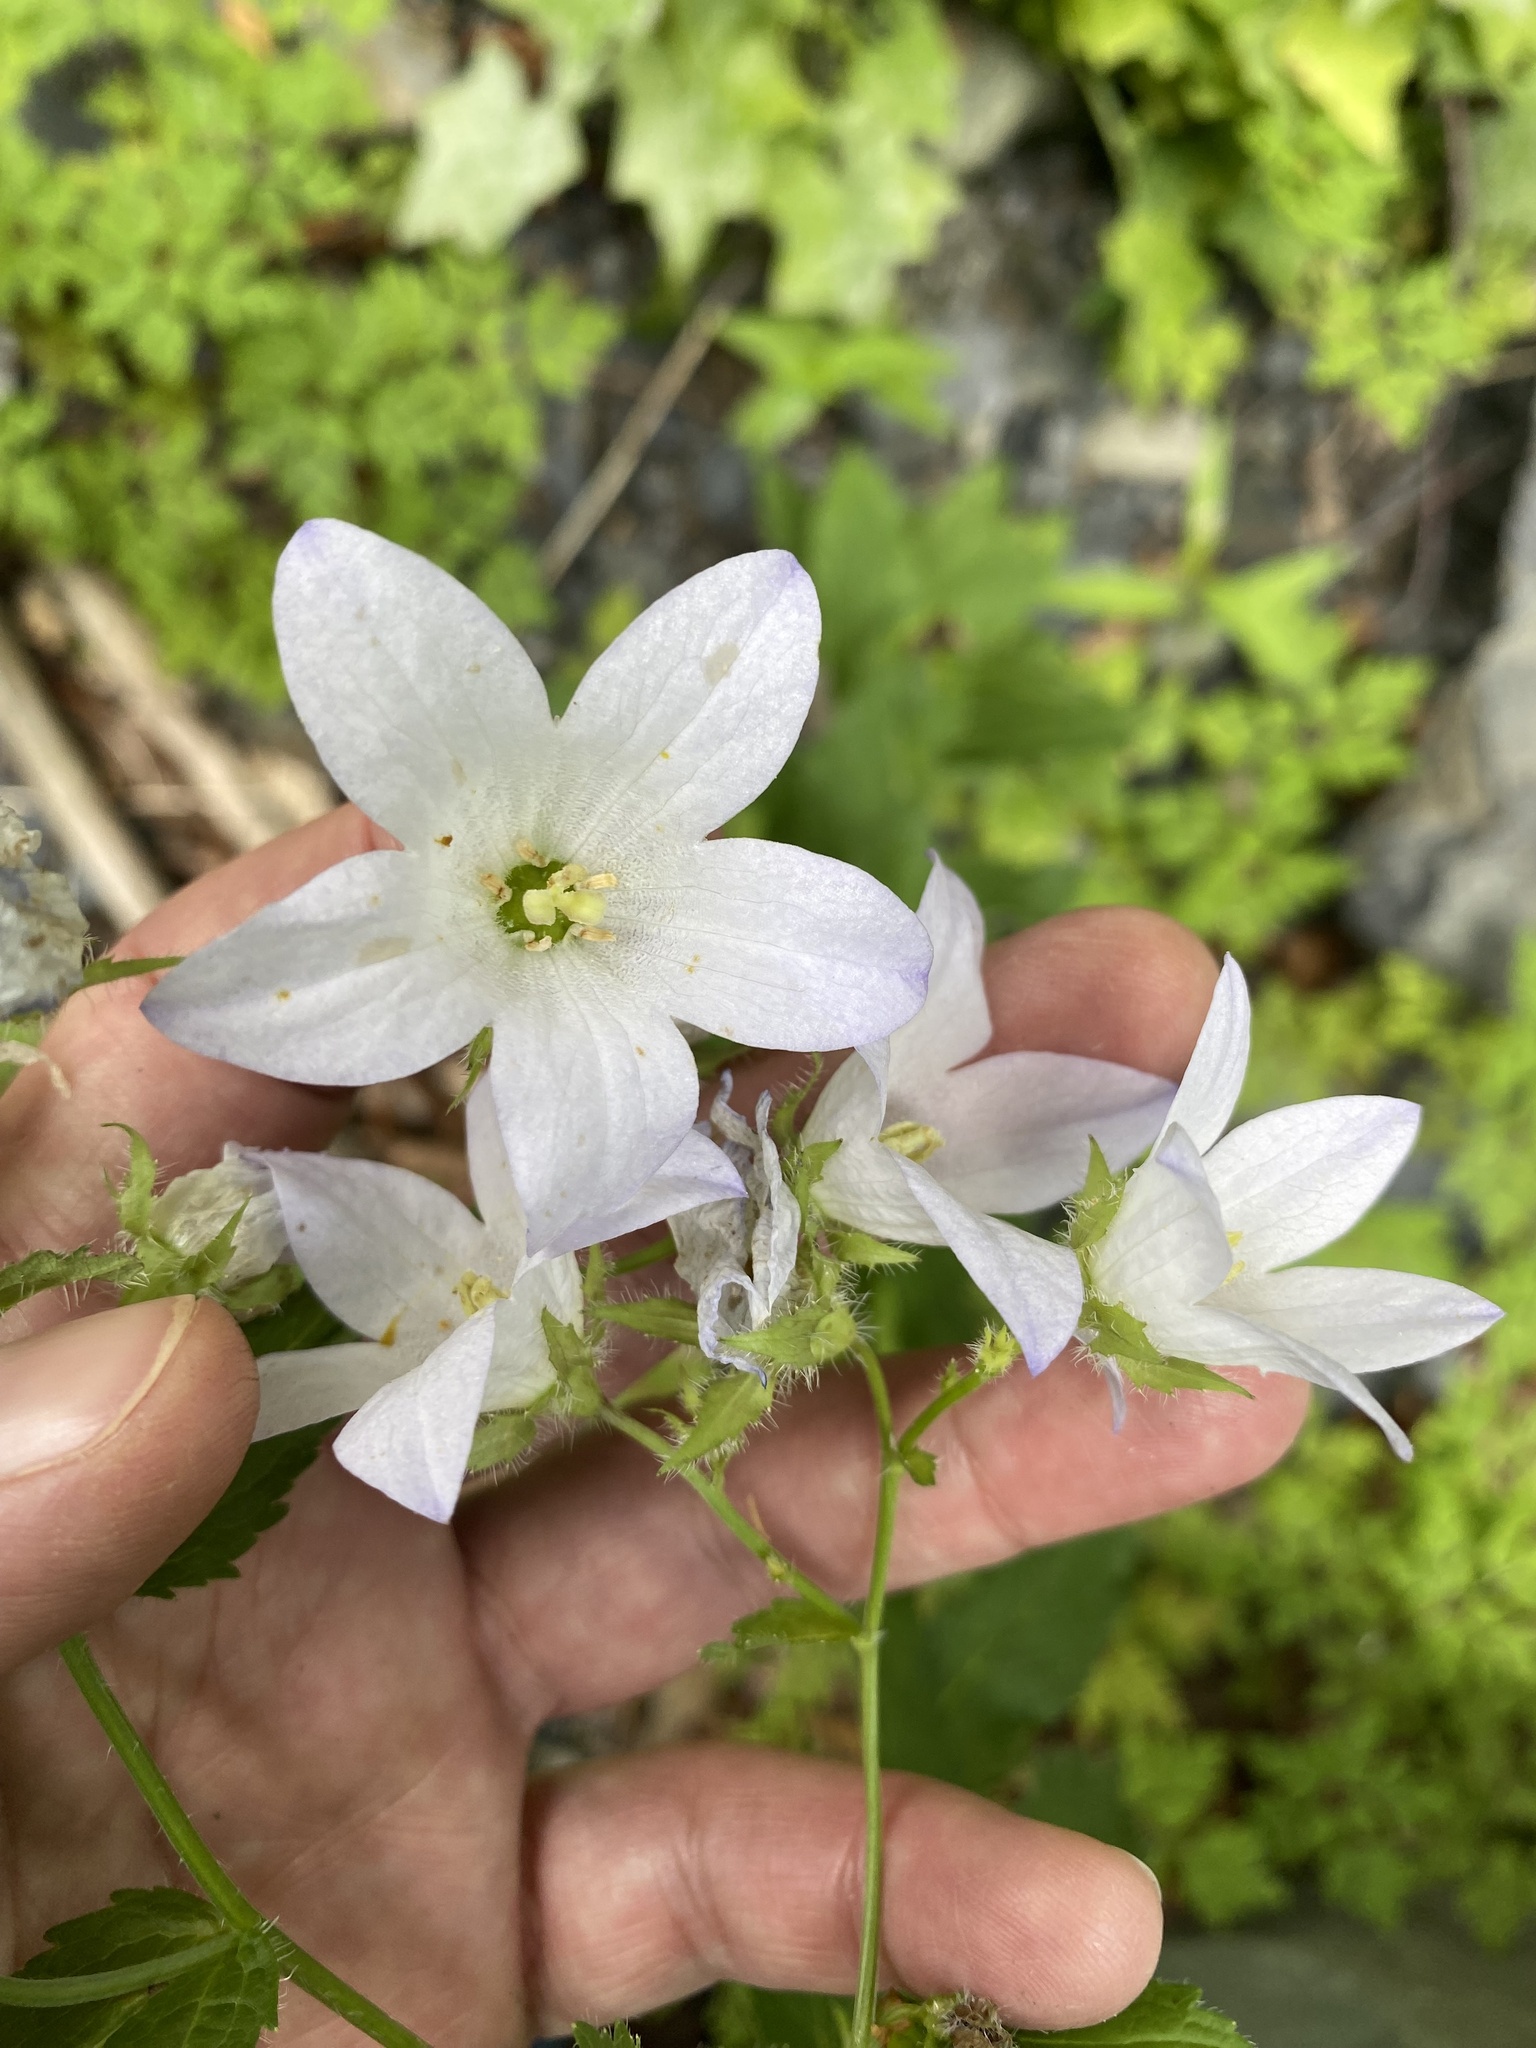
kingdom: Plantae
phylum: Tracheophyta
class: Magnoliopsida
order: Asterales
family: Campanulaceae
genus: Campanula
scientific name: Campanula lactiflora
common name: Milky bellflower
